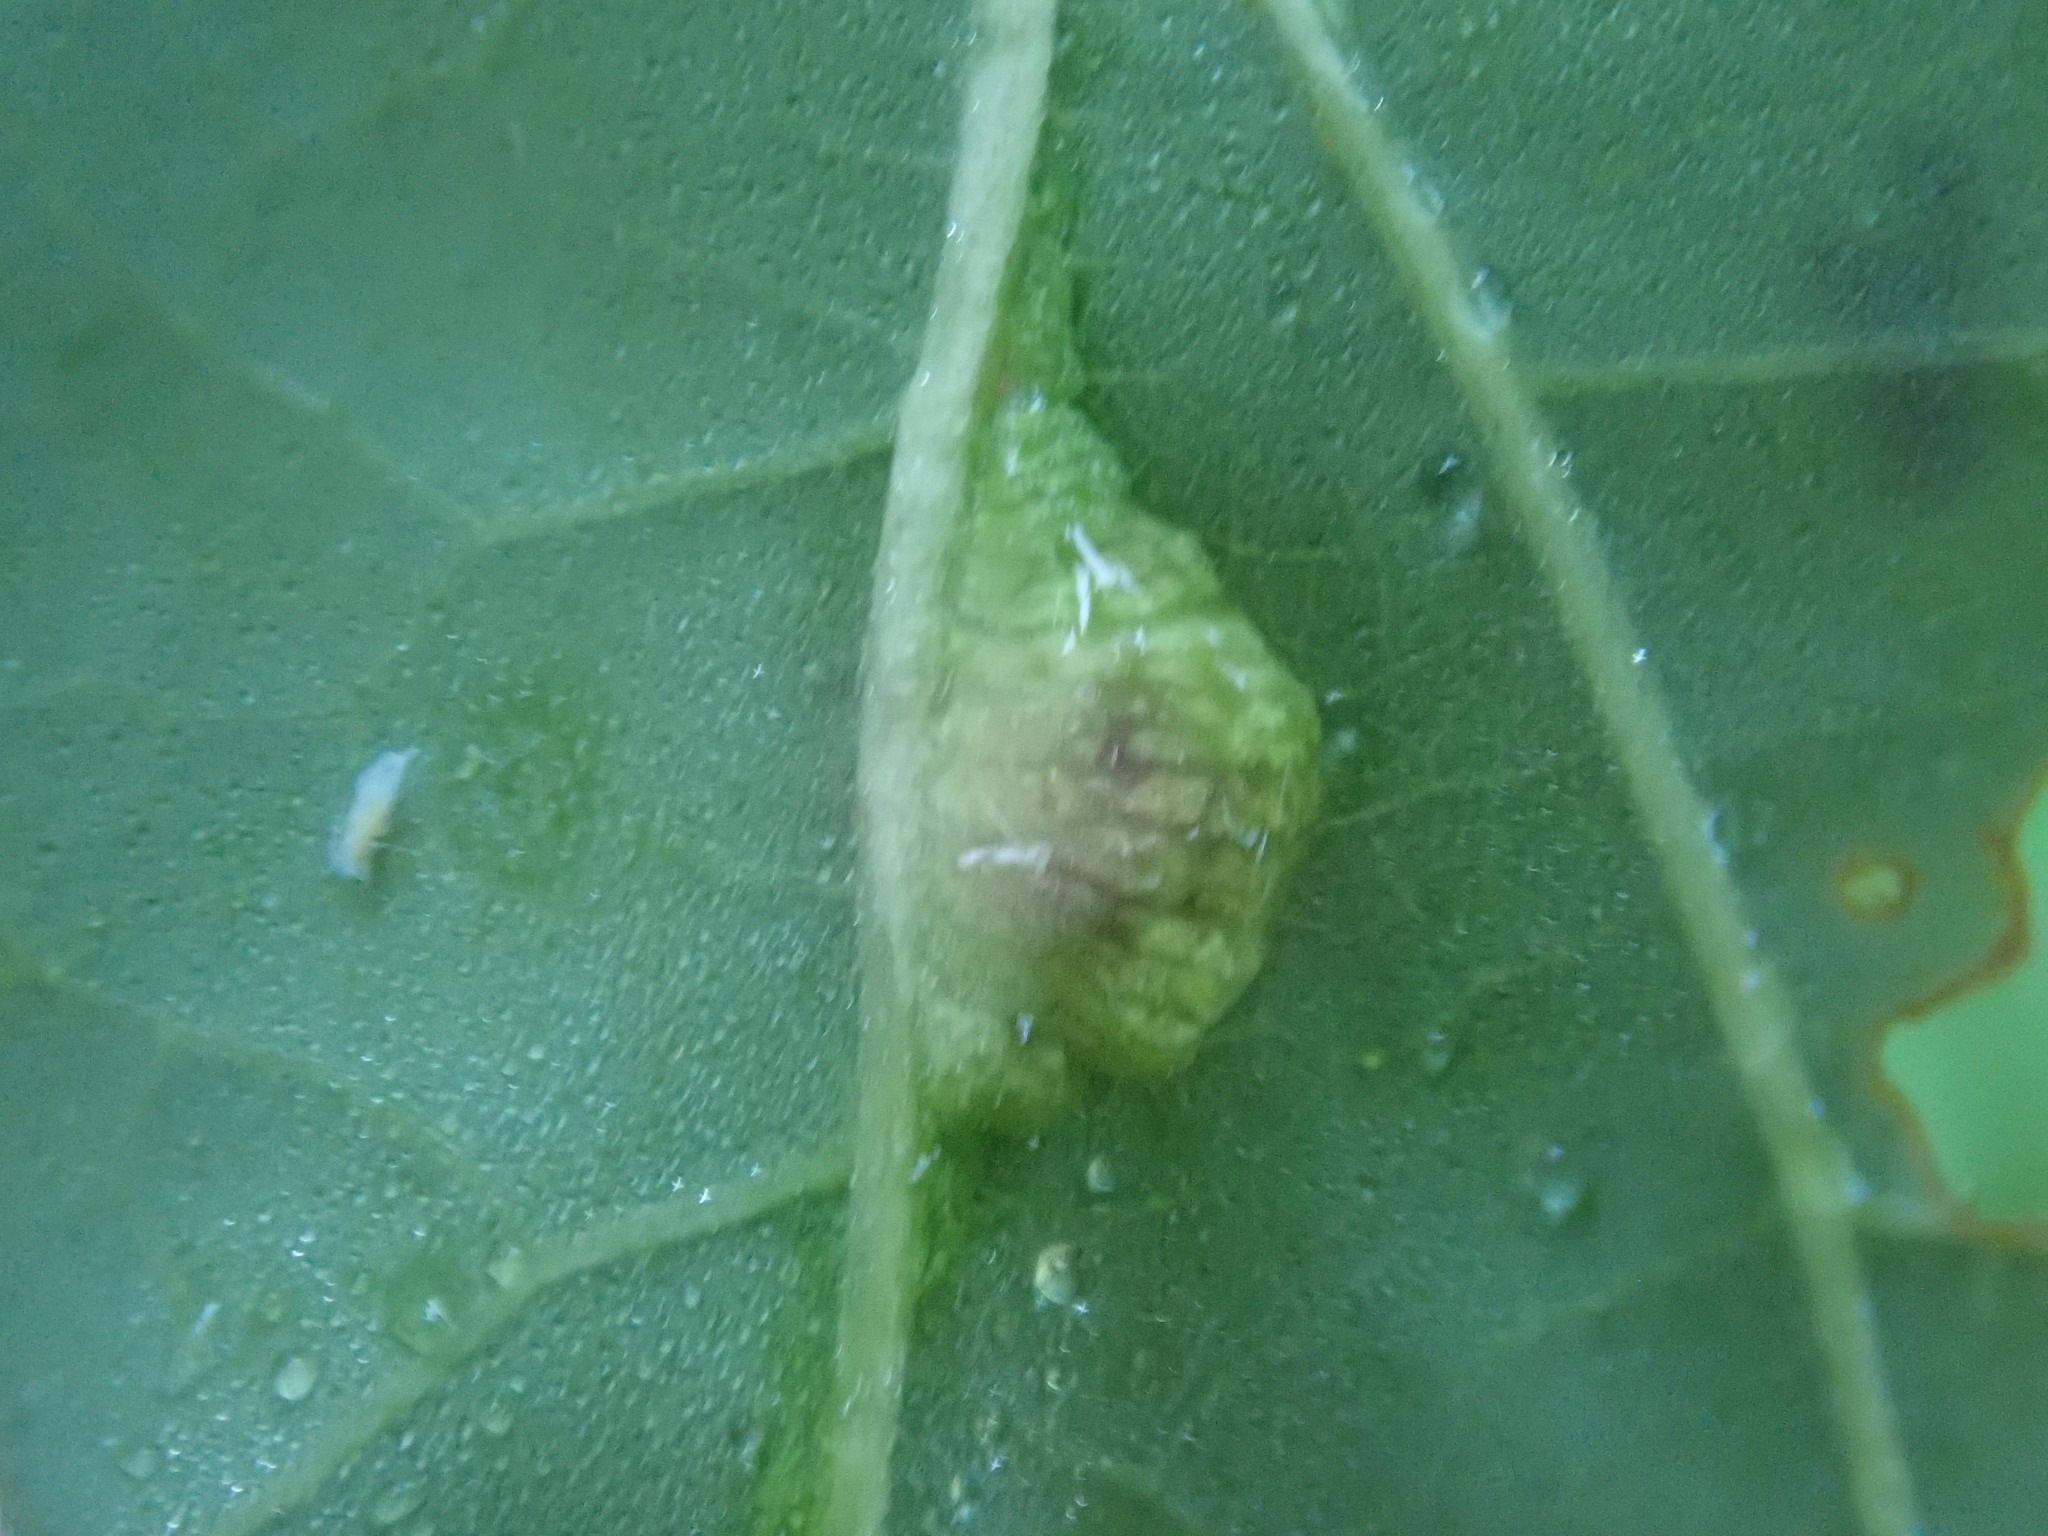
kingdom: Animalia
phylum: Arthropoda
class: Insecta
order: Diptera
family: Cecidomyiidae
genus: Macrodiplosis
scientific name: Macrodiplosis majalis
